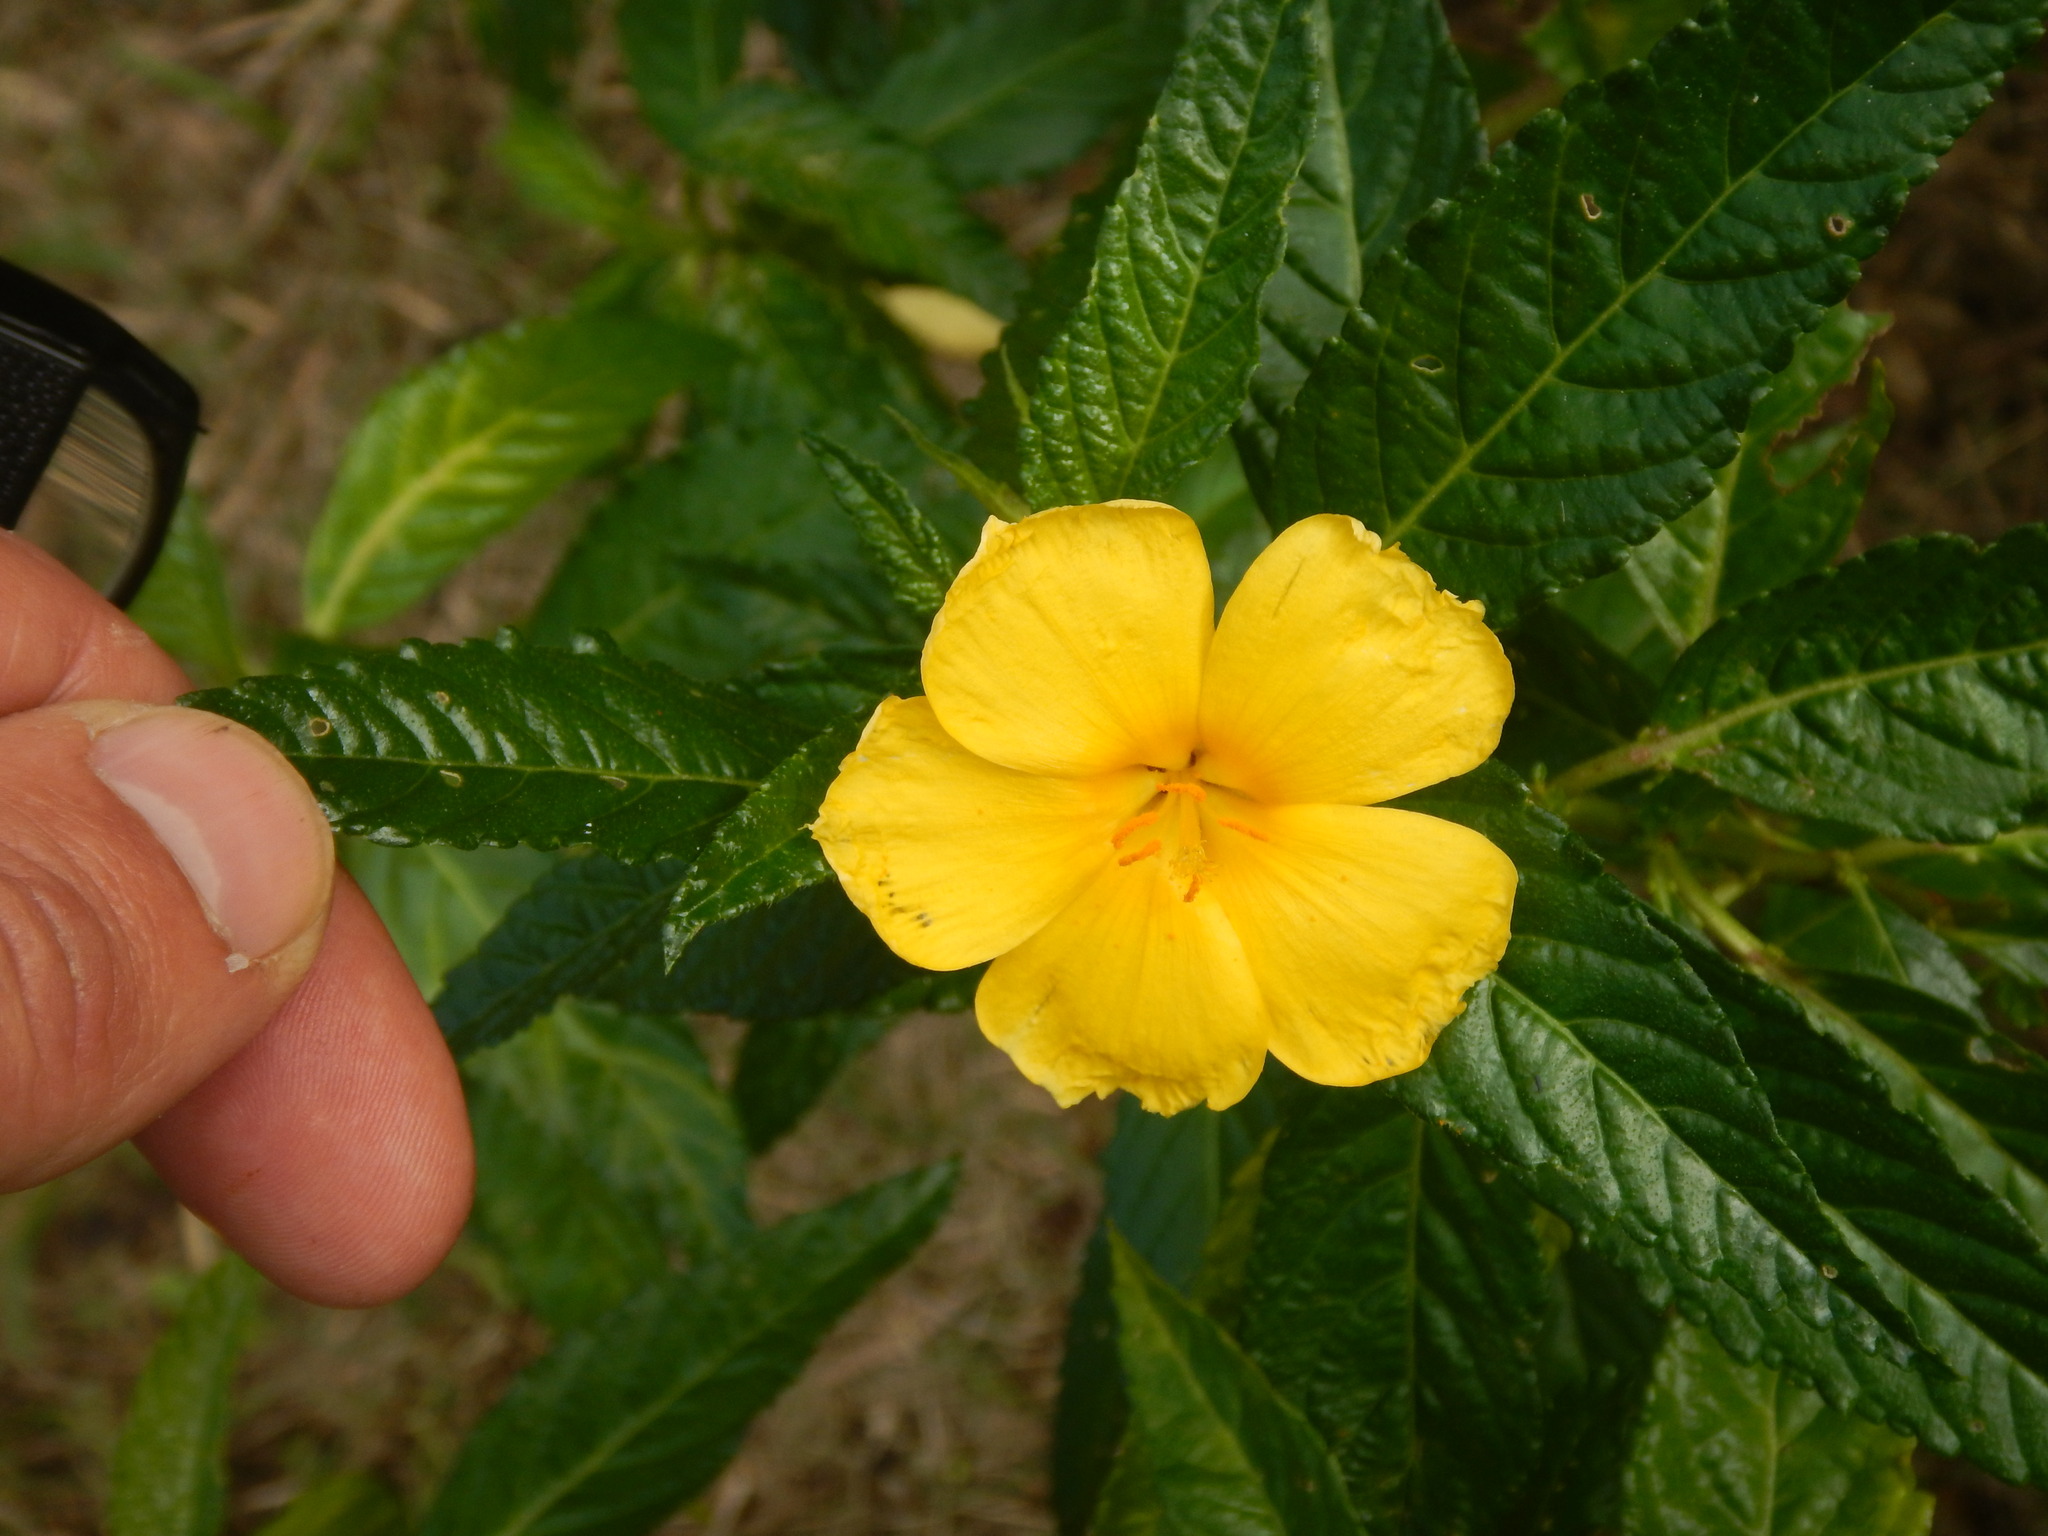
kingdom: Plantae
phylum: Tracheophyta
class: Magnoliopsida
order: Malpighiales
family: Turneraceae
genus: Turnera
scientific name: Turnera ulmifolia
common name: Ramgoat dashalong
